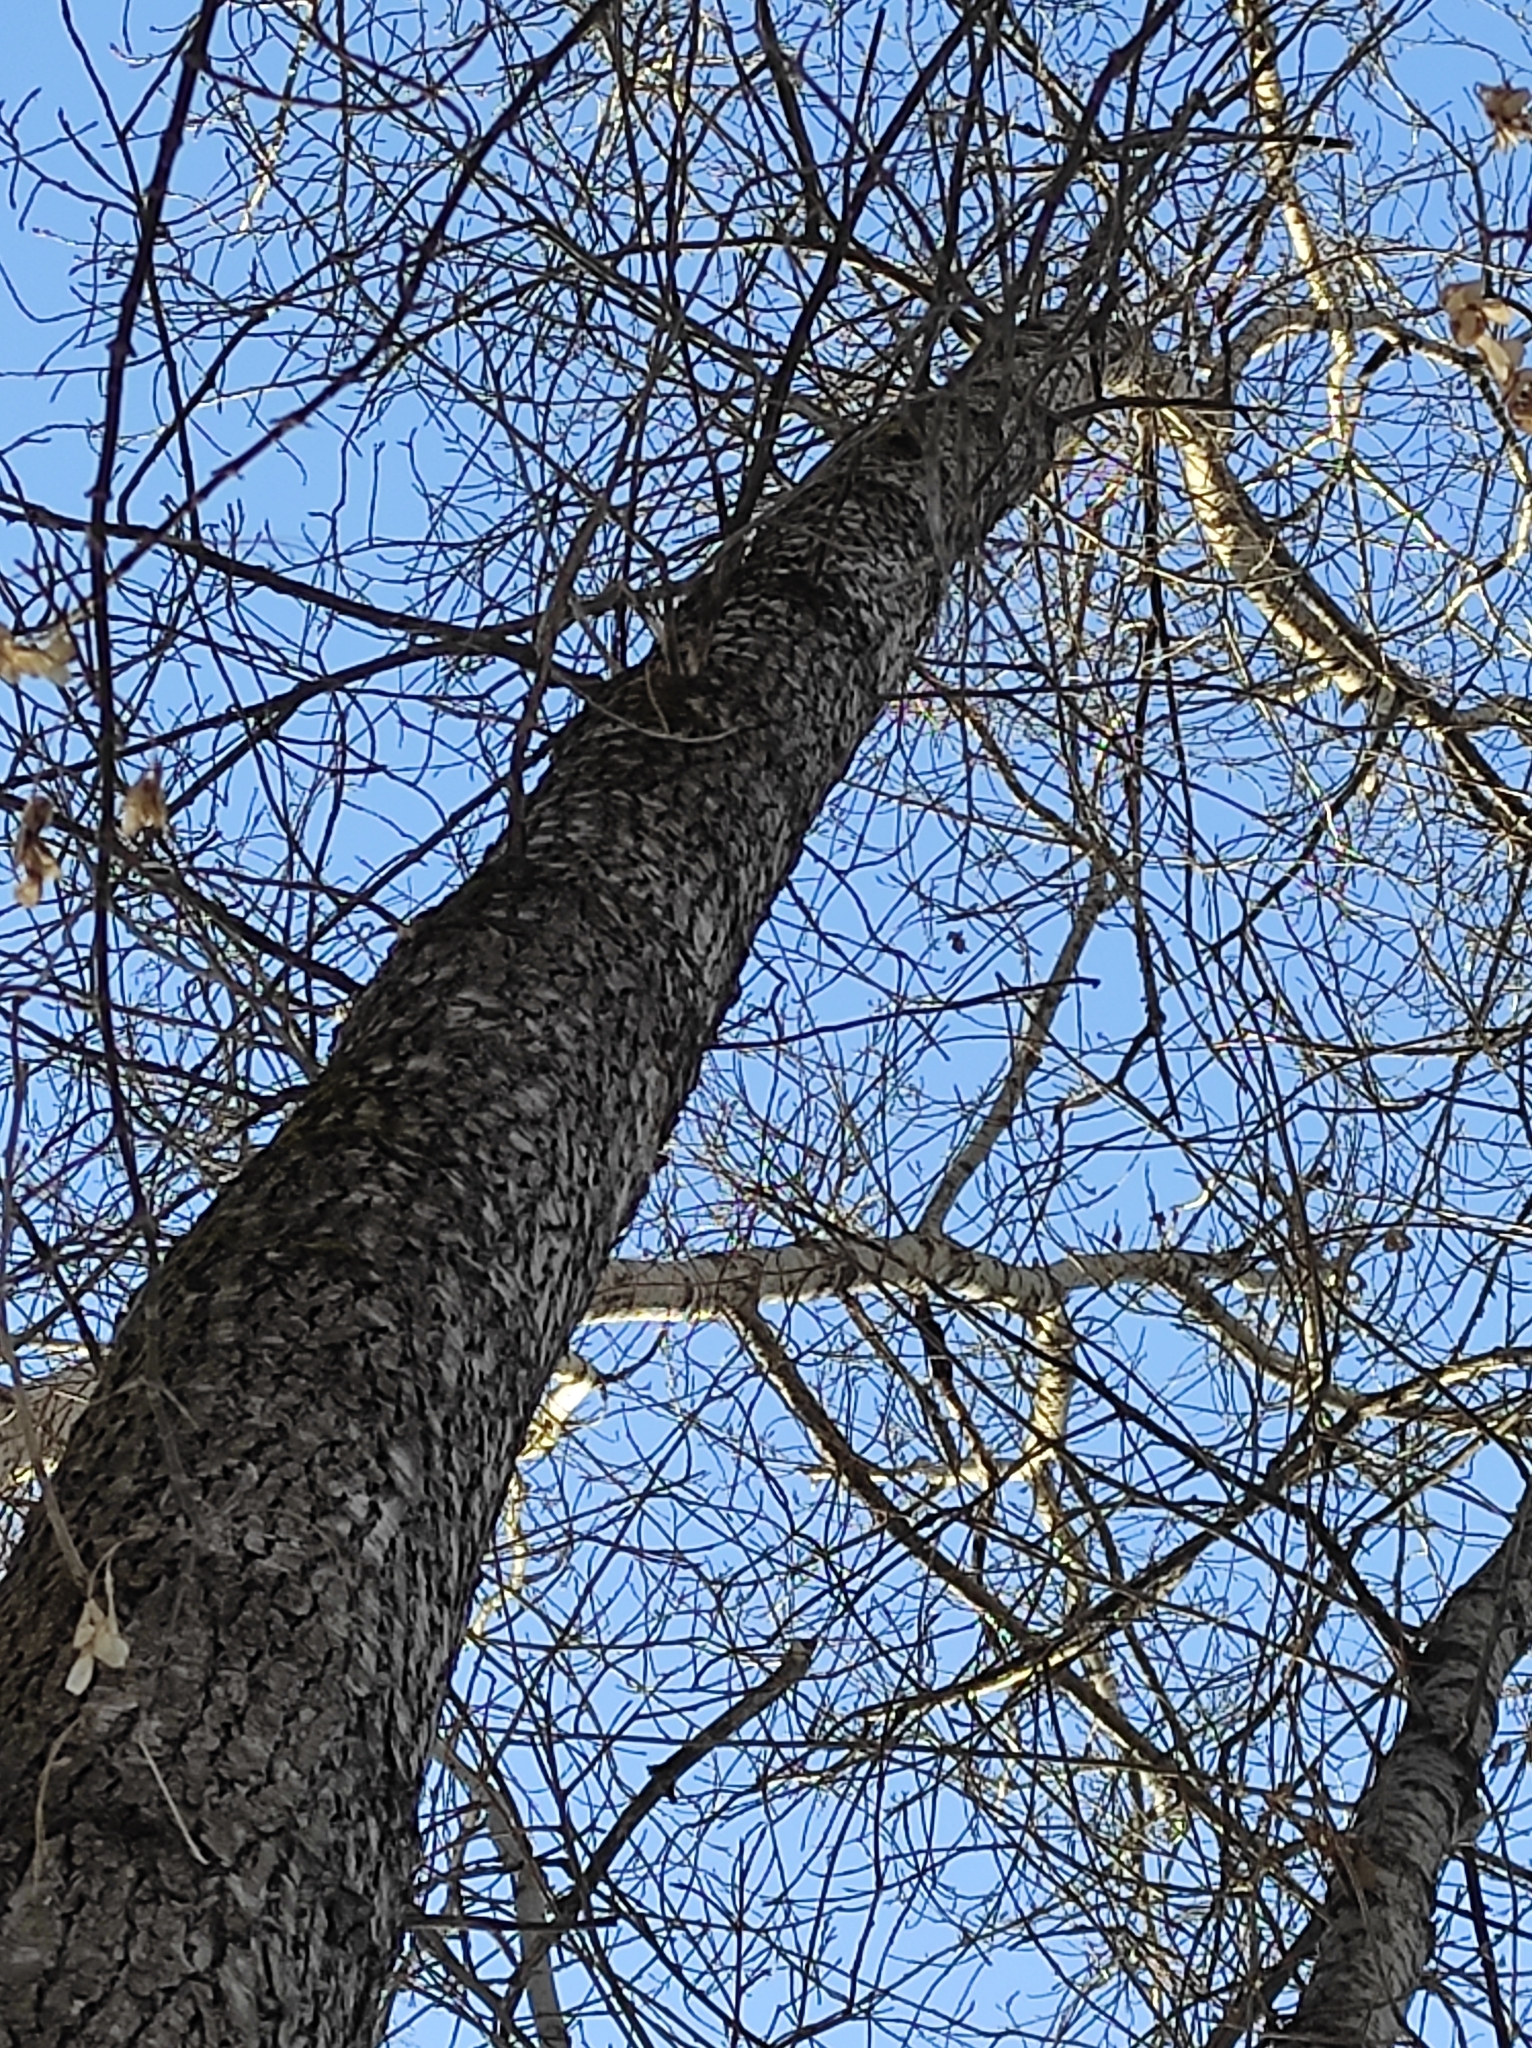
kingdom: Plantae
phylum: Tracheophyta
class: Magnoliopsida
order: Malpighiales
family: Salicaceae
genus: Populus
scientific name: Populus tremula
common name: European aspen
